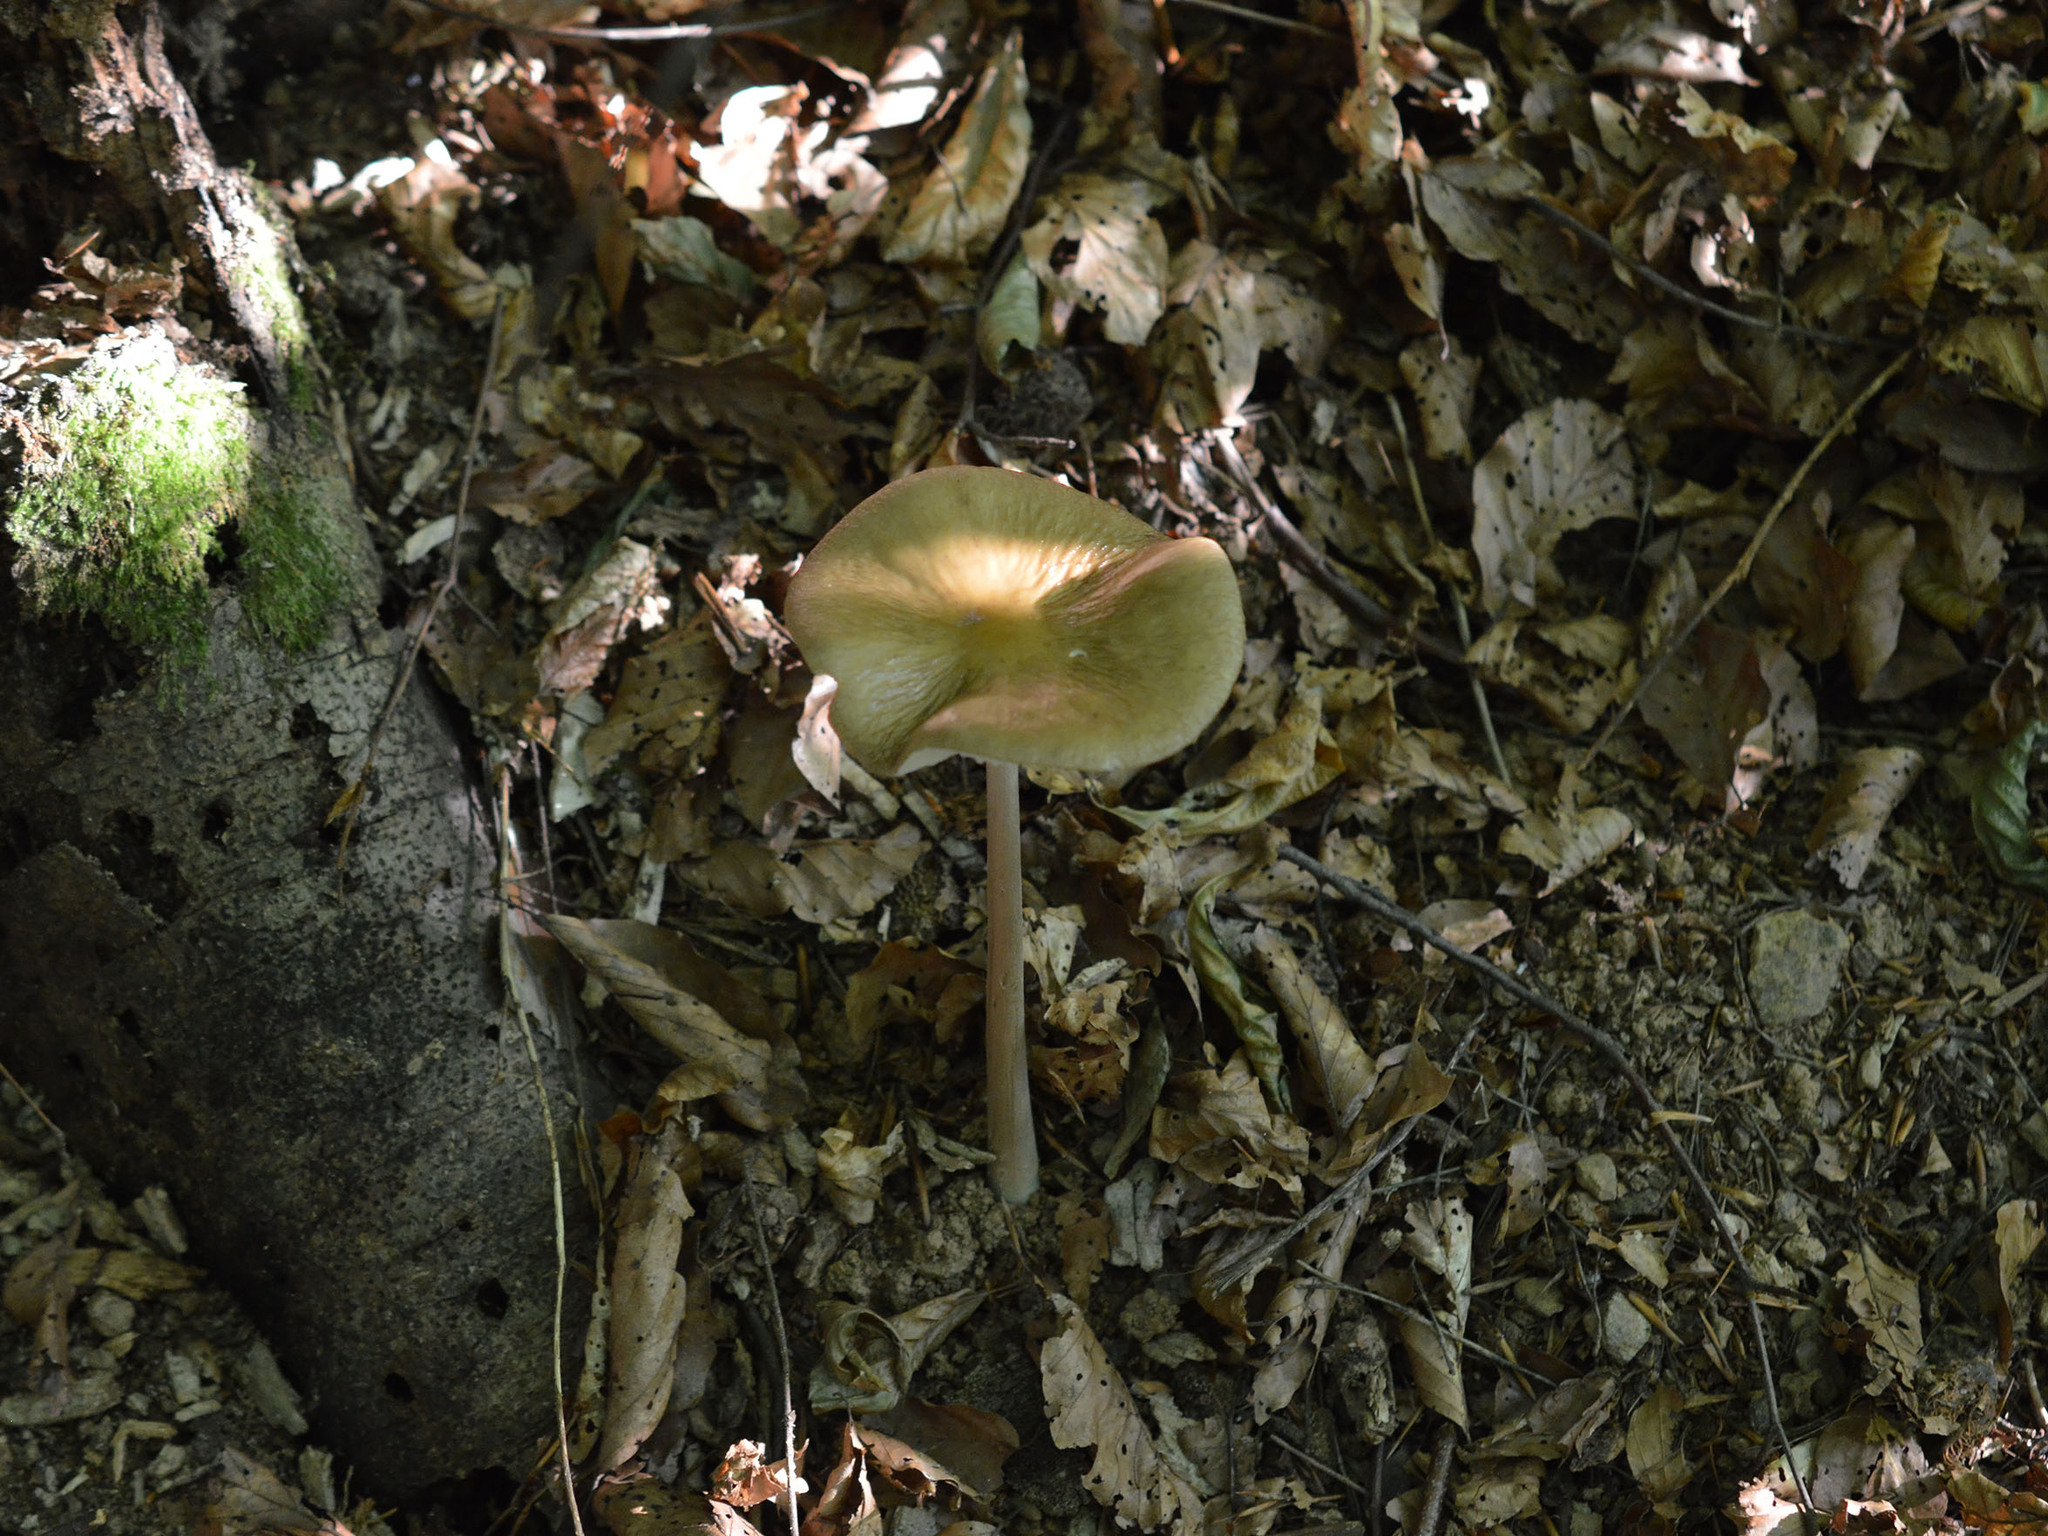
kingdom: Fungi
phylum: Basidiomycota
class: Agaricomycetes
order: Agaricales
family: Physalacriaceae
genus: Hymenopellis
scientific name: Hymenopellis radicata
